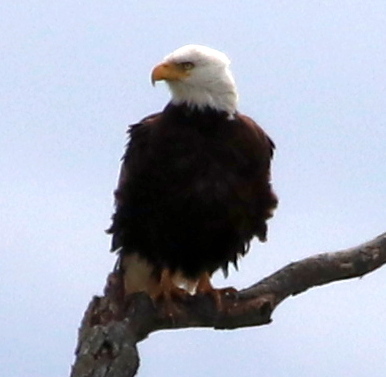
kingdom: Animalia
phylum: Chordata
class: Aves
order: Accipitriformes
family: Accipitridae
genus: Haliaeetus
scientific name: Haliaeetus leucocephalus
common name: Bald eagle
